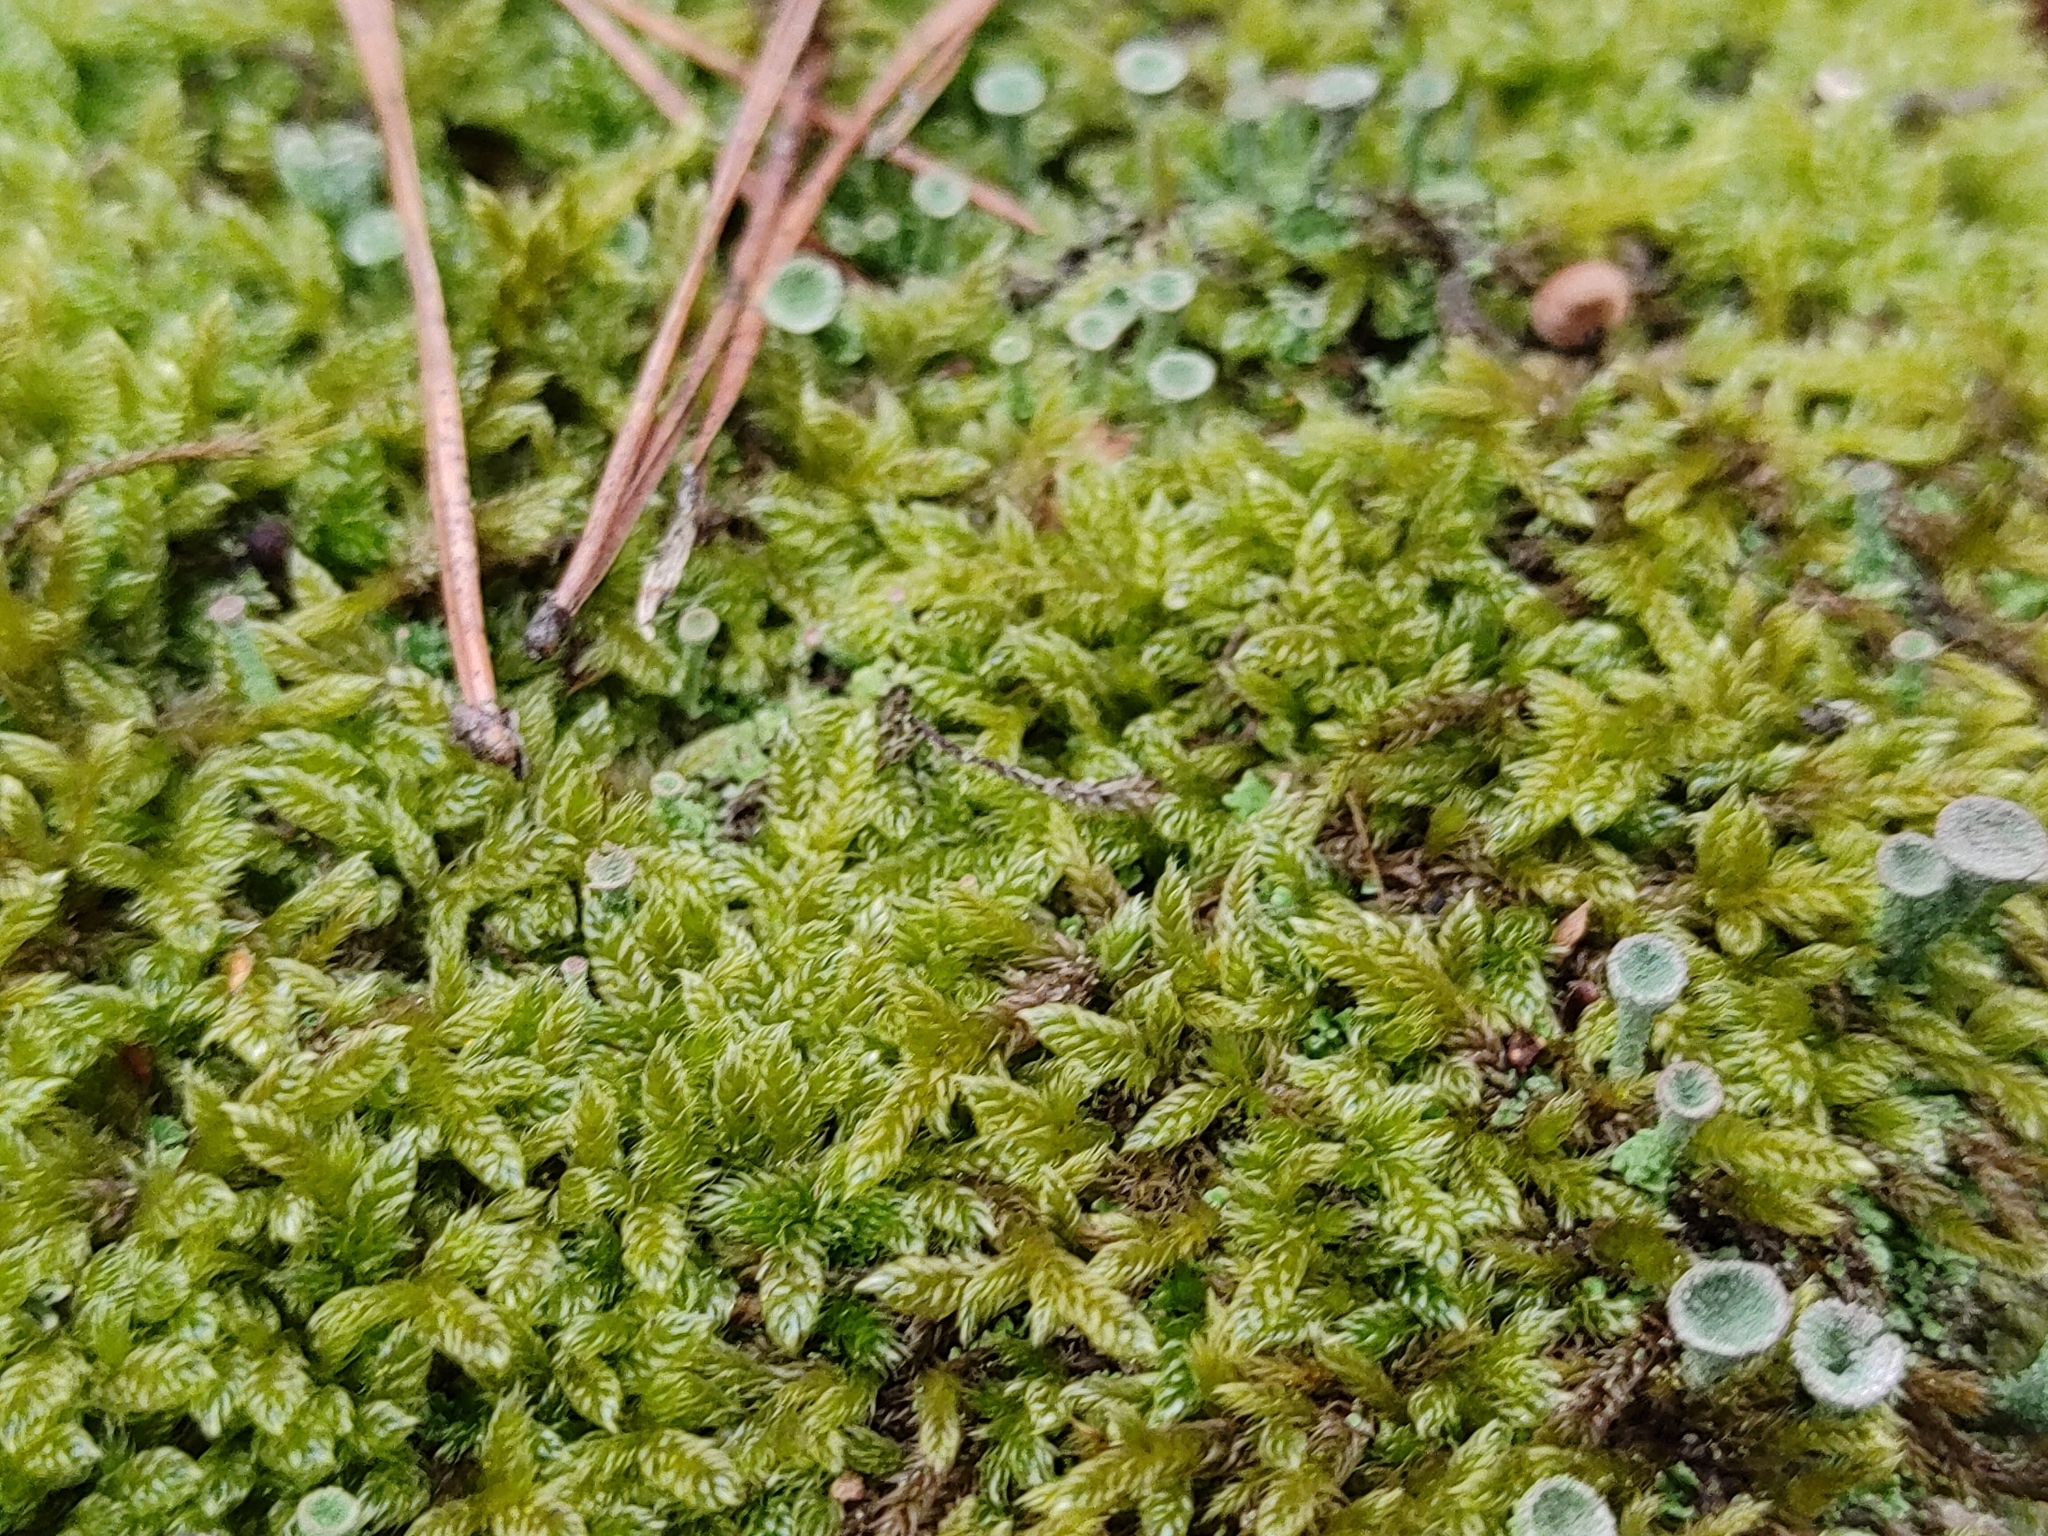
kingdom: Plantae
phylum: Bryophyta
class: Bryopsida
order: Hypnales
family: Hypnaceae
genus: Hypnum
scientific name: Hypnum cupressiforme
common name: Cypress-leaved plait-moss
